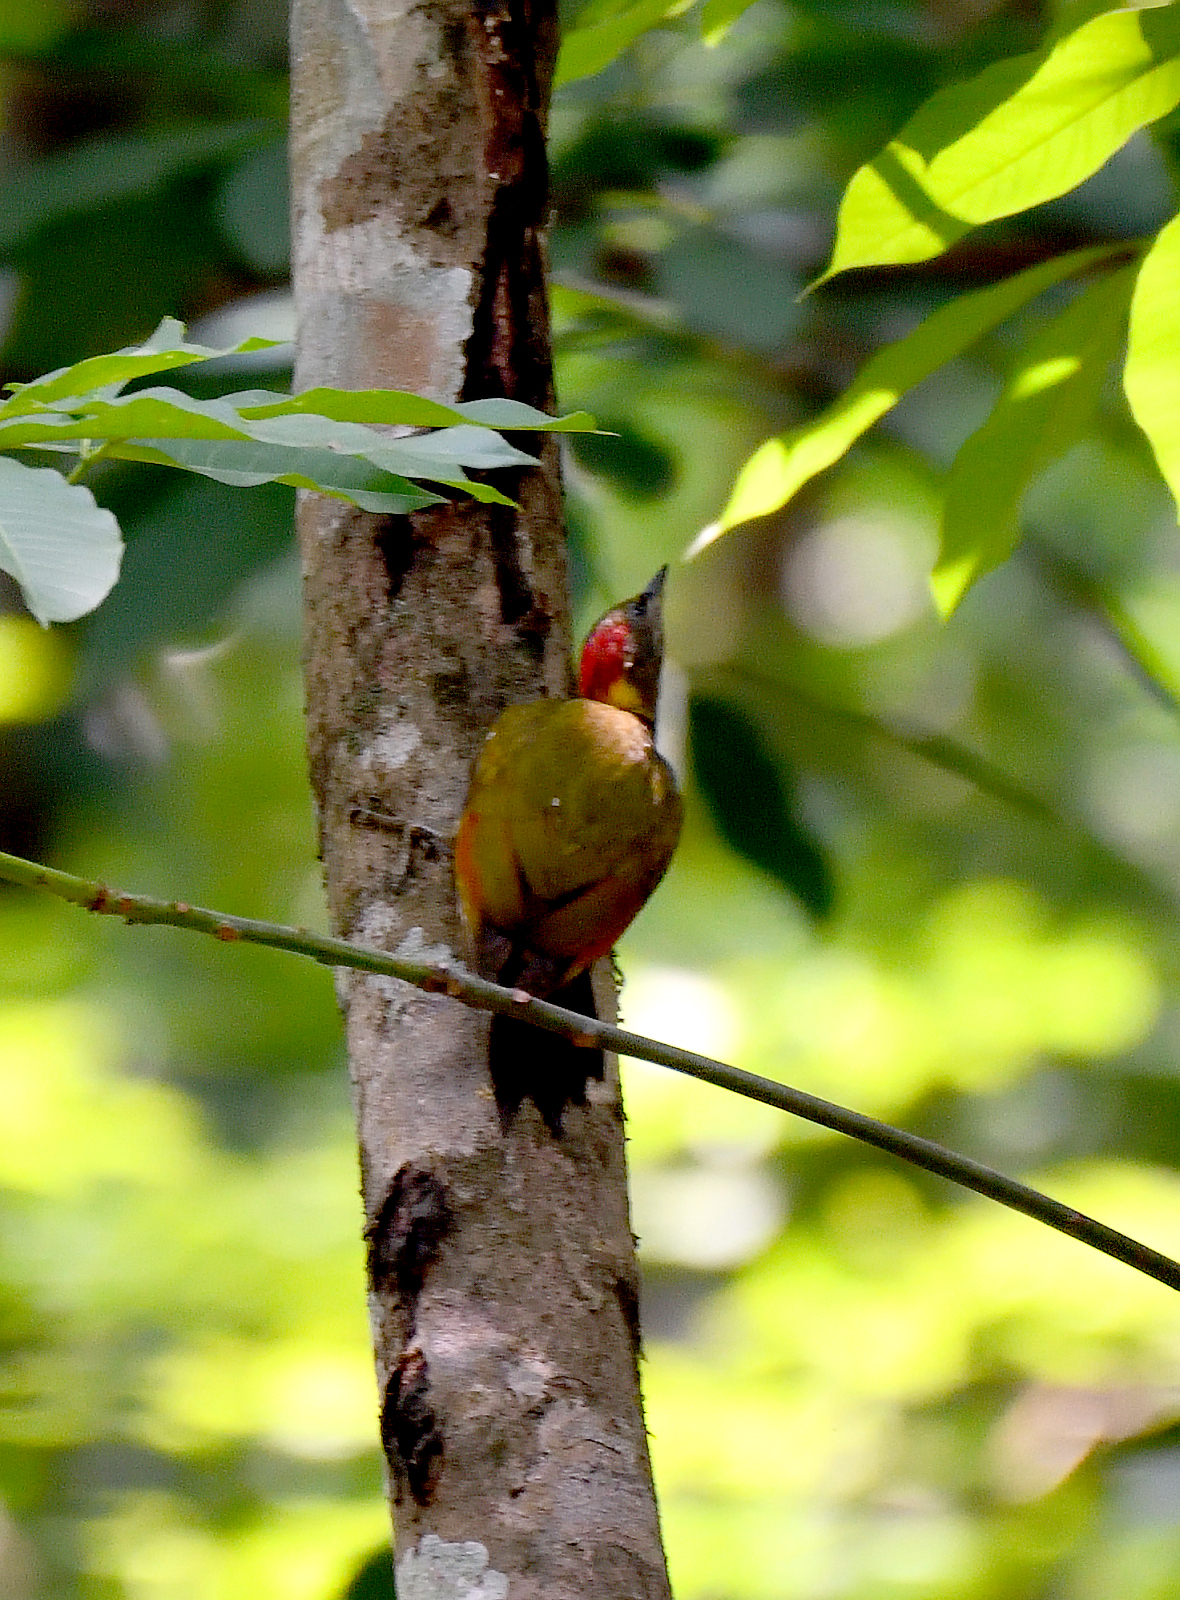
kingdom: Animalia
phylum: Chordata
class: Aves
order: Piciformes
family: Picidae
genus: Picus
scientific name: Picus chlorolophus
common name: Lesser yellownape
